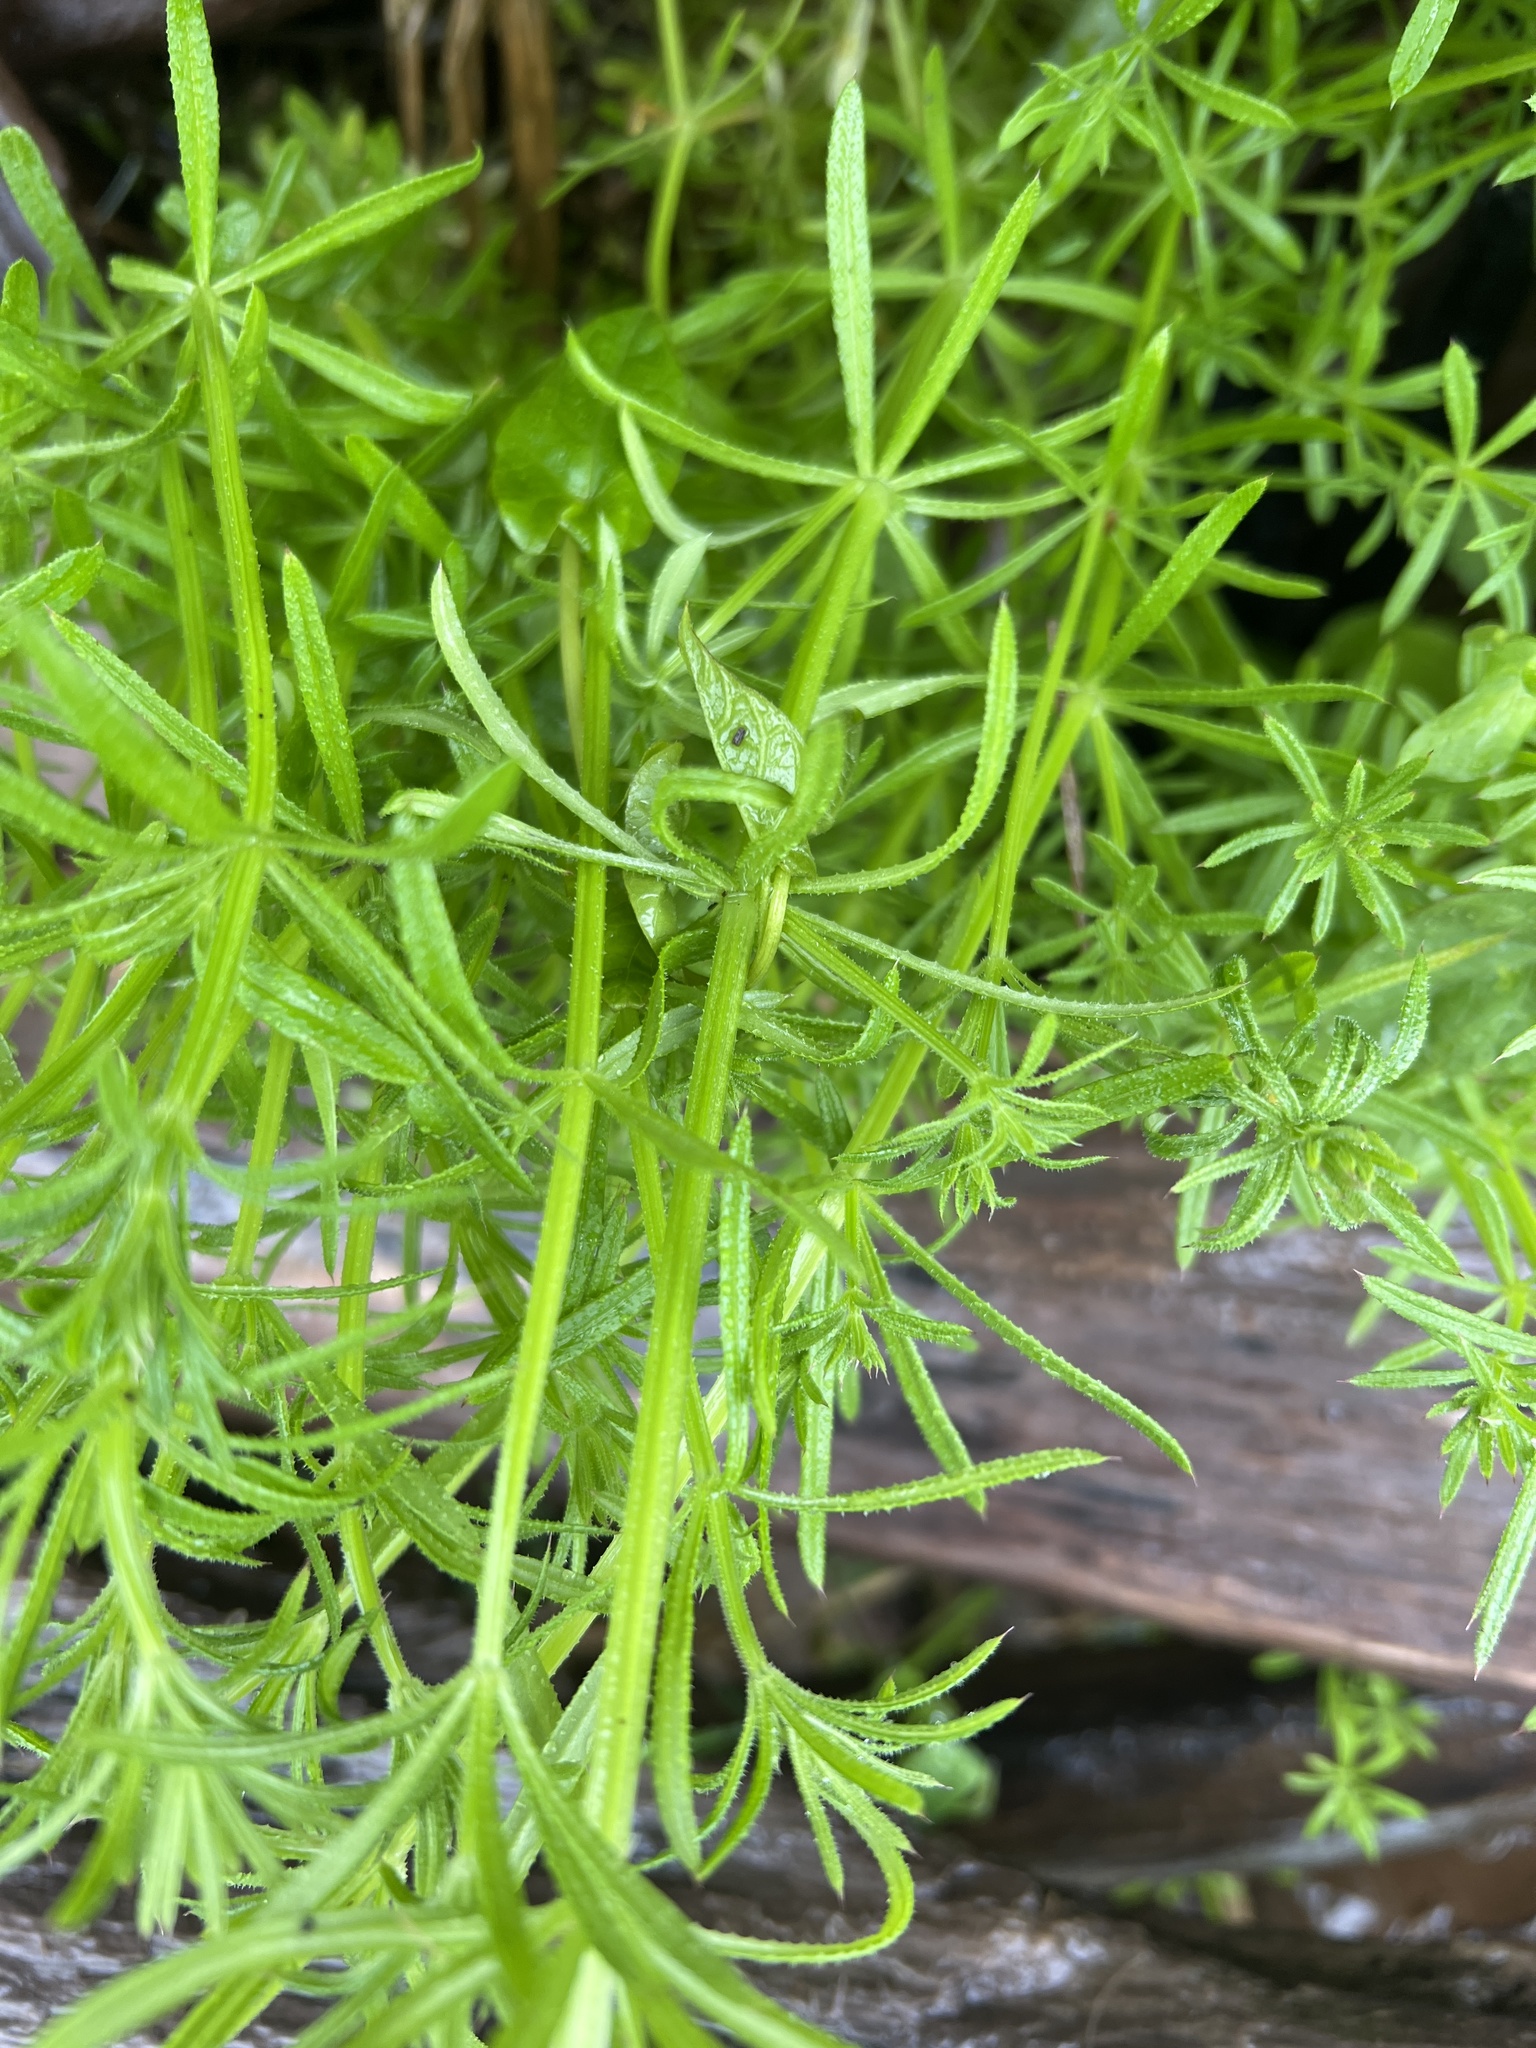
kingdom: Plantae
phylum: Tracheophyta
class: Magnoliopsida
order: Gentianales
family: Rubiaceae
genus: Galium
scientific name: Galium aparine
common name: Cleavers
